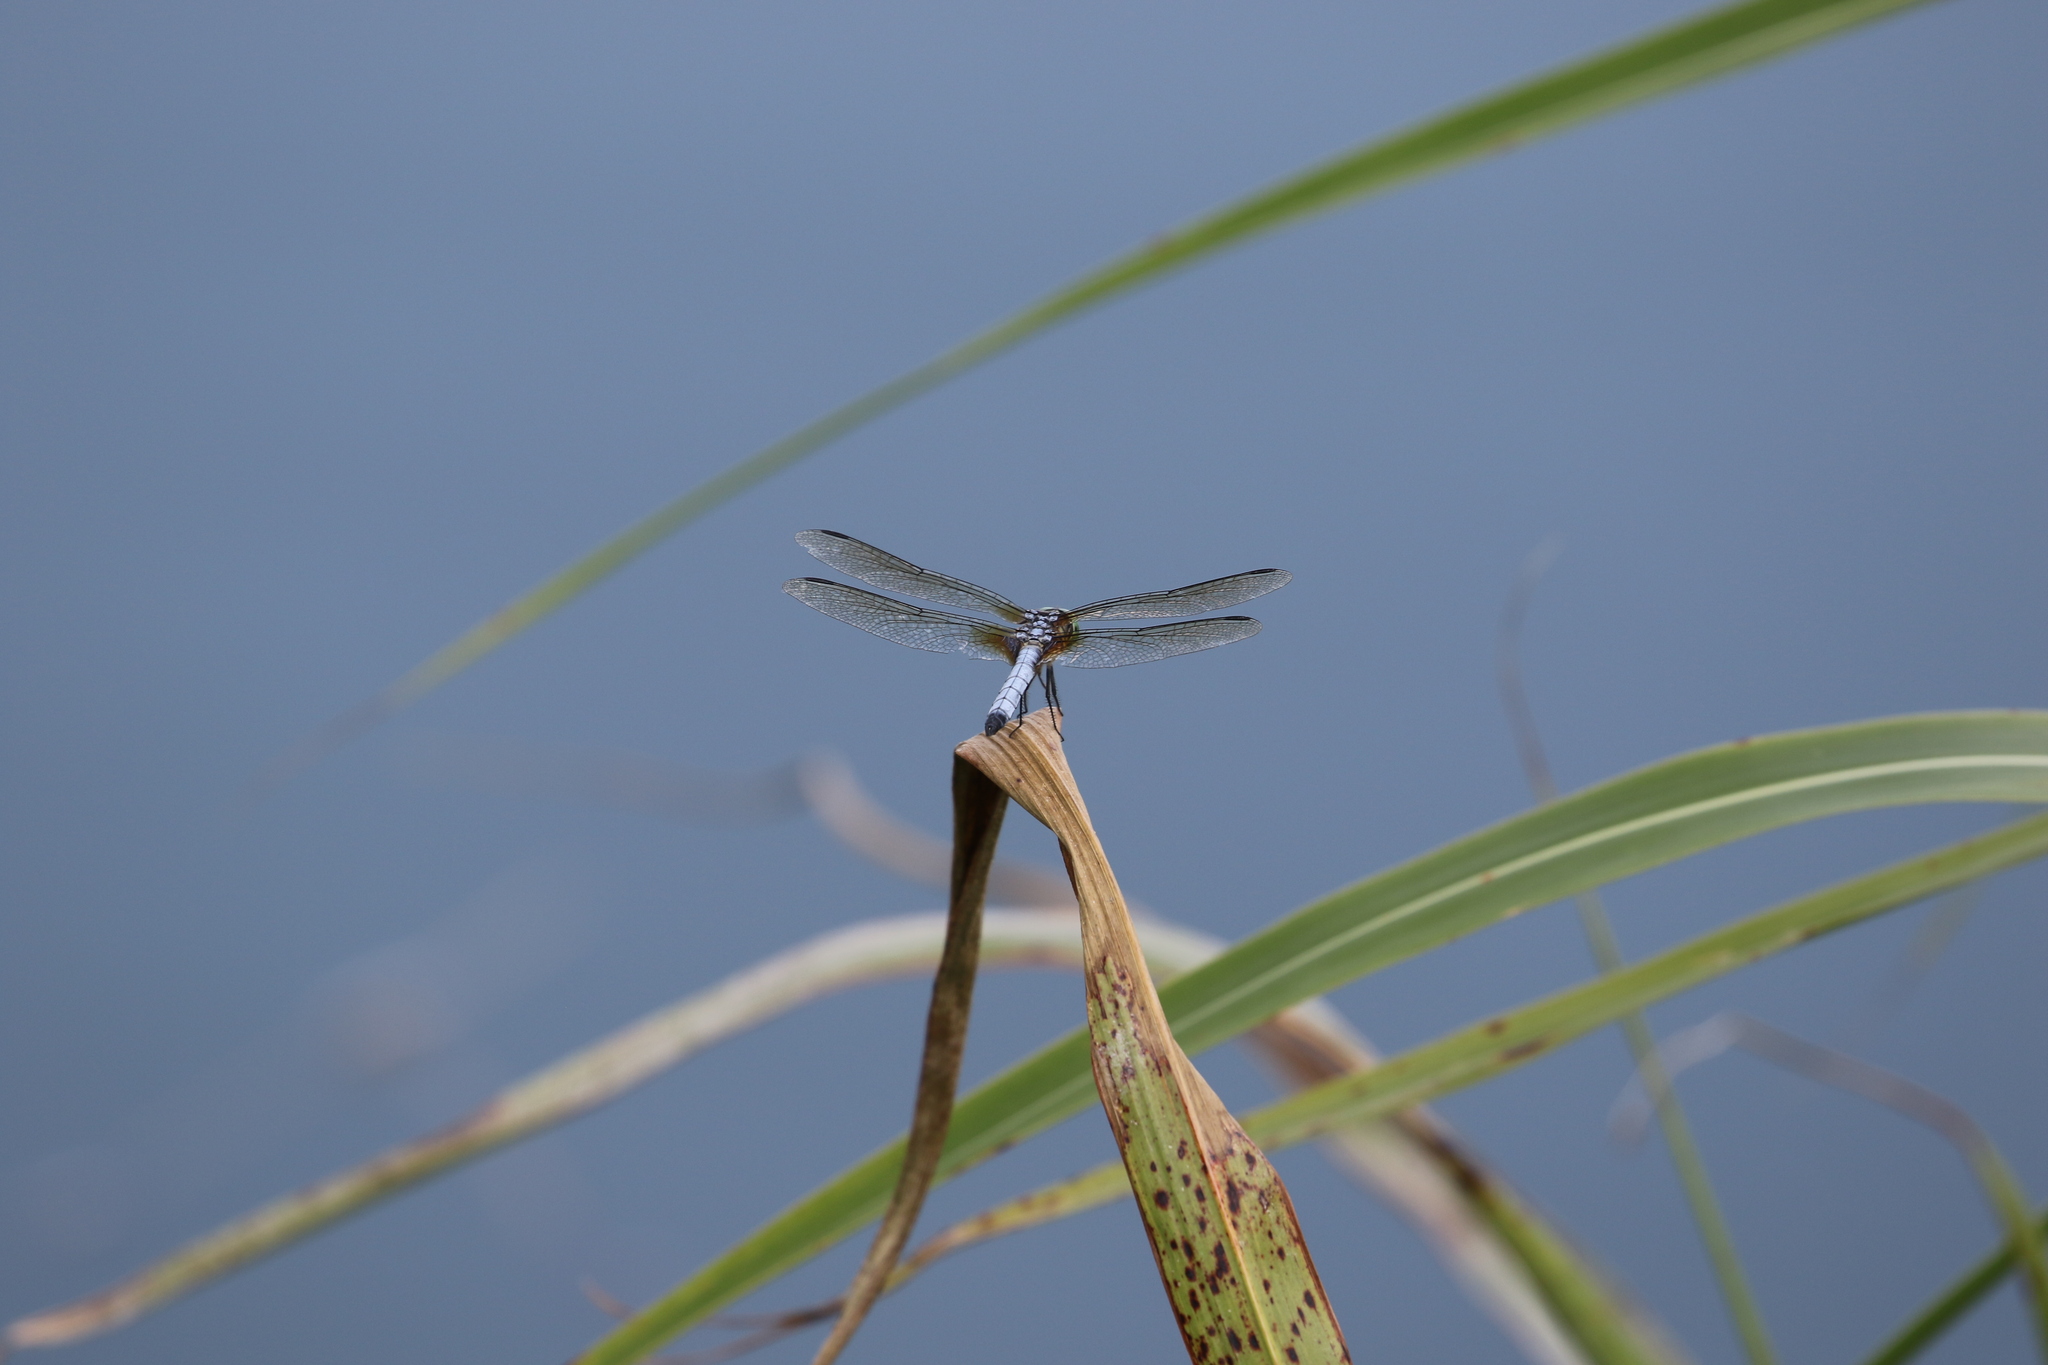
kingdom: Animalia
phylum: Arthropoda
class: Insecta
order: Odonata
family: Libellulidae
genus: Pachydiplax
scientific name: Pachydiplax longipennis
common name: Blue dasher
